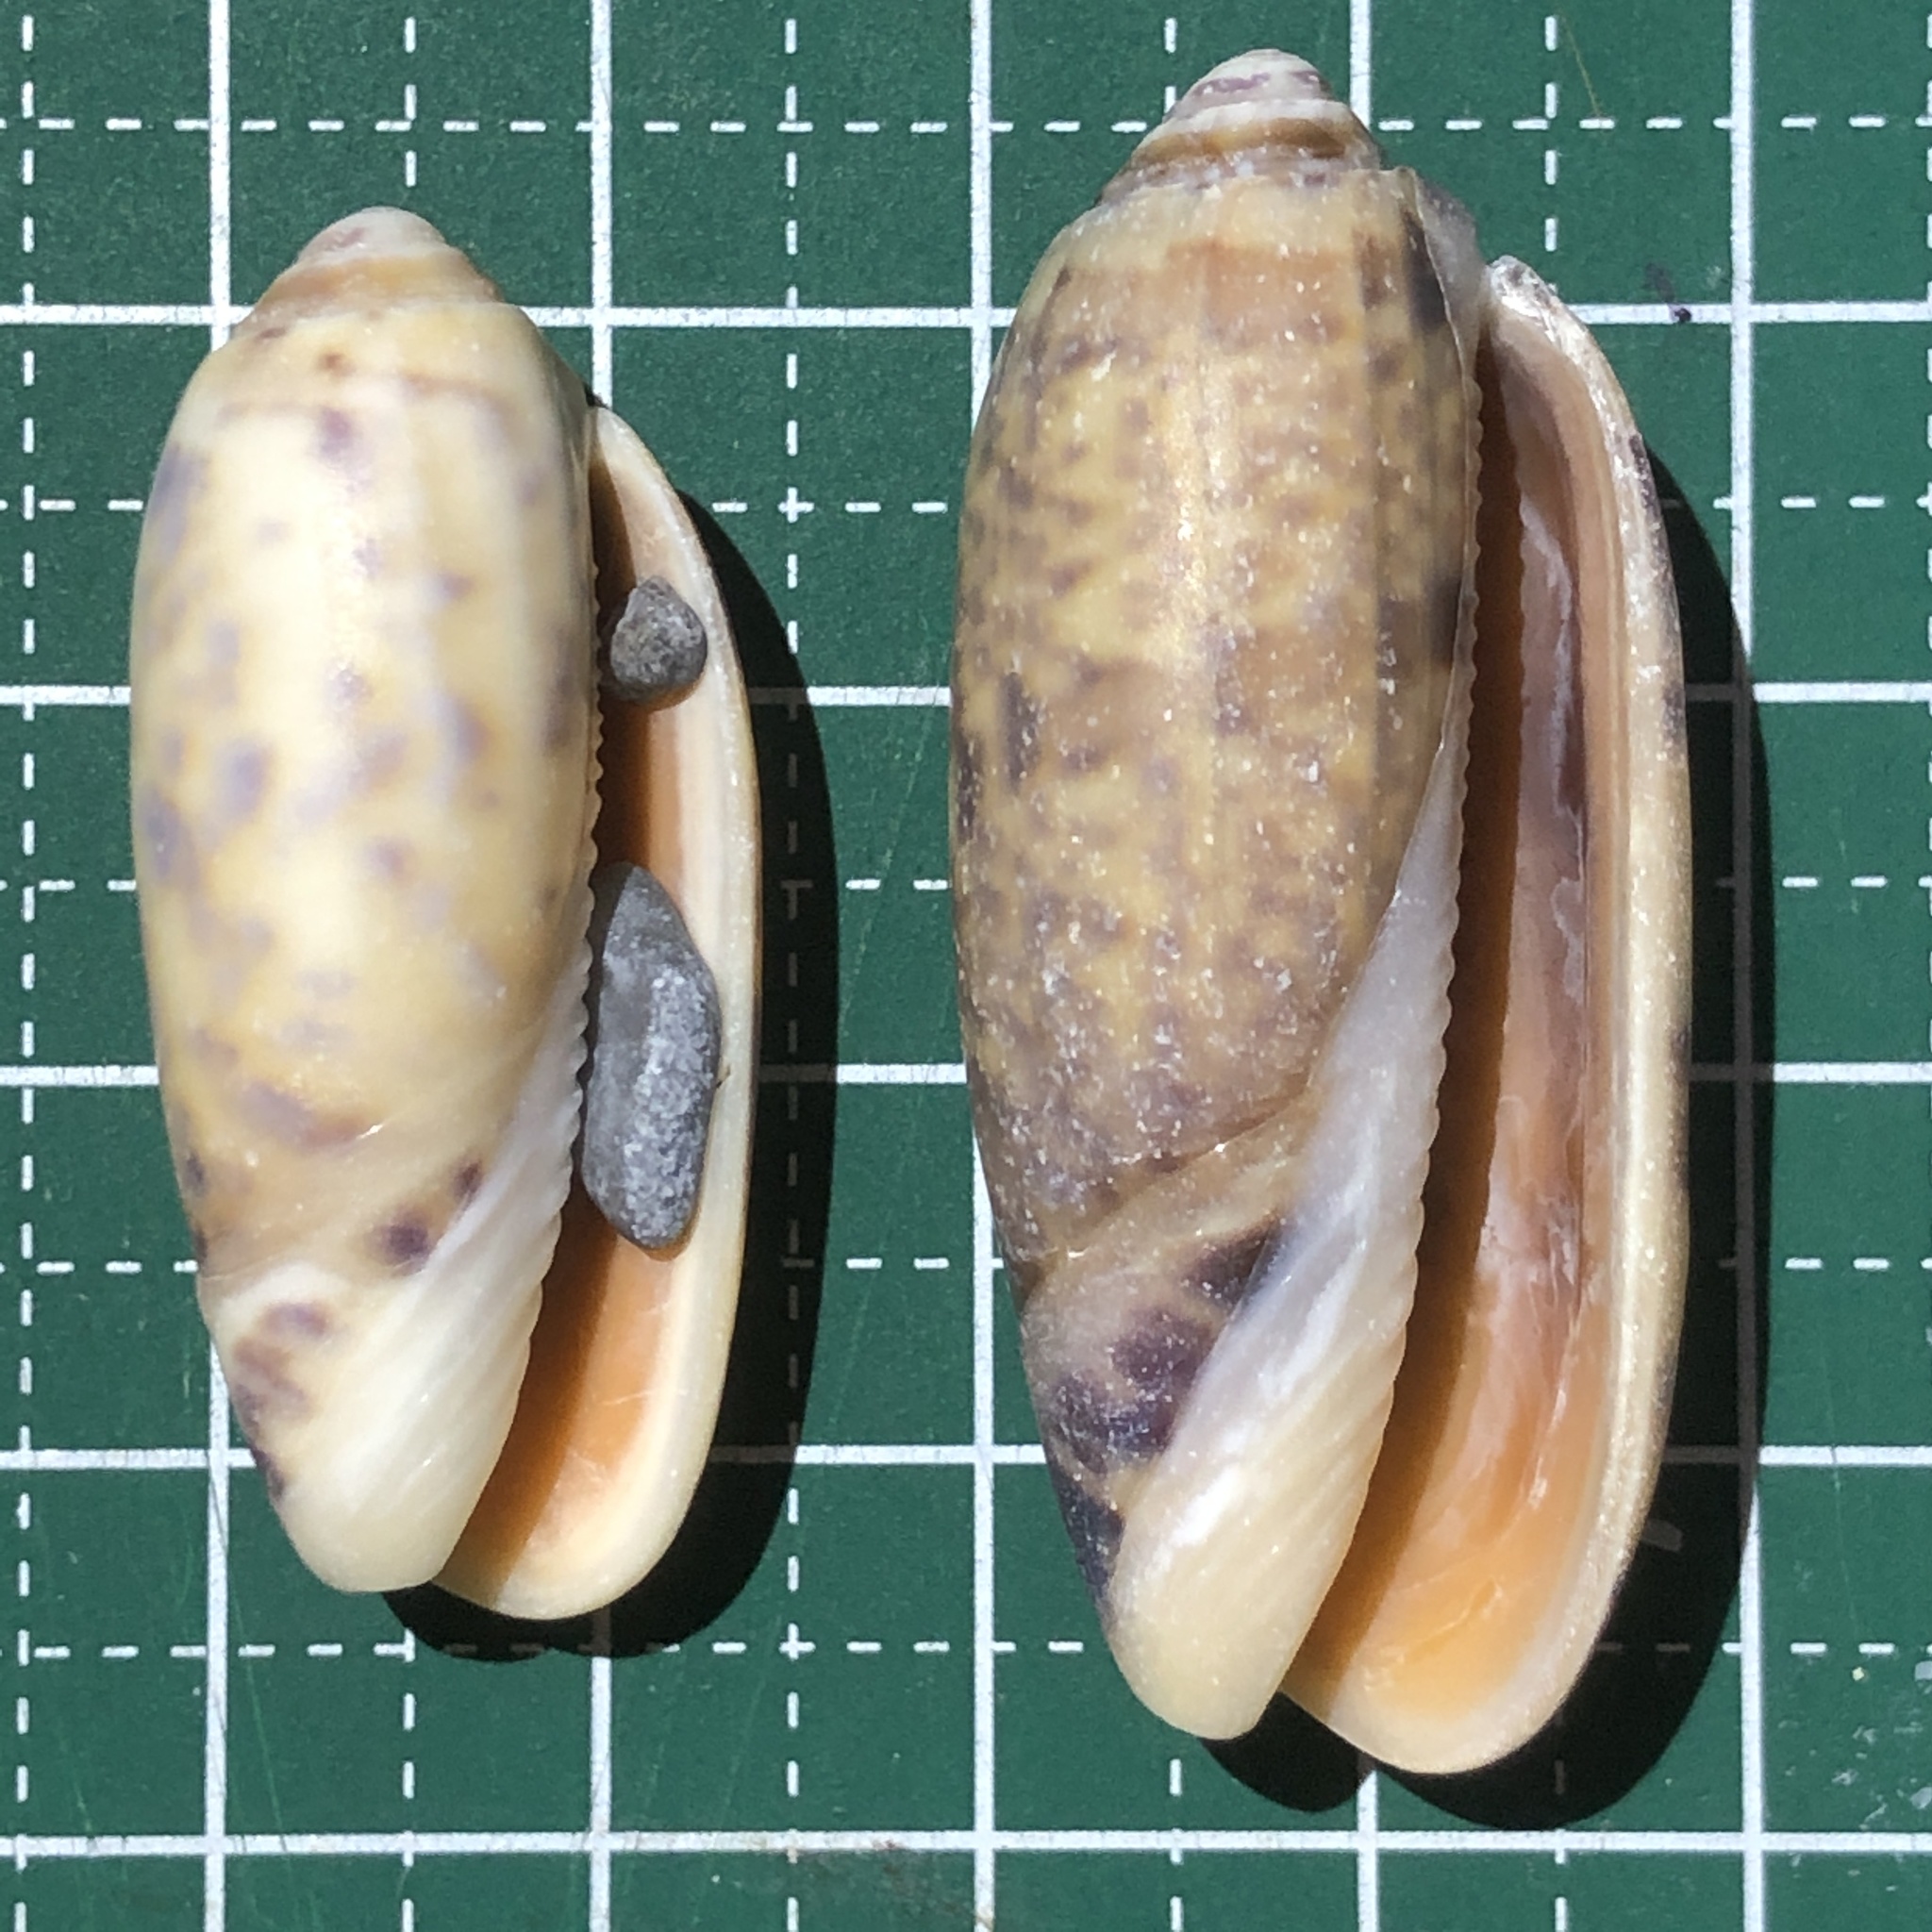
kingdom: Animalia
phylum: Mollusca
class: Gastropoda
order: Neogastropoda
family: Olividae
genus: Oliva
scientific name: Oliva miniacea
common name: Pacific common olive
